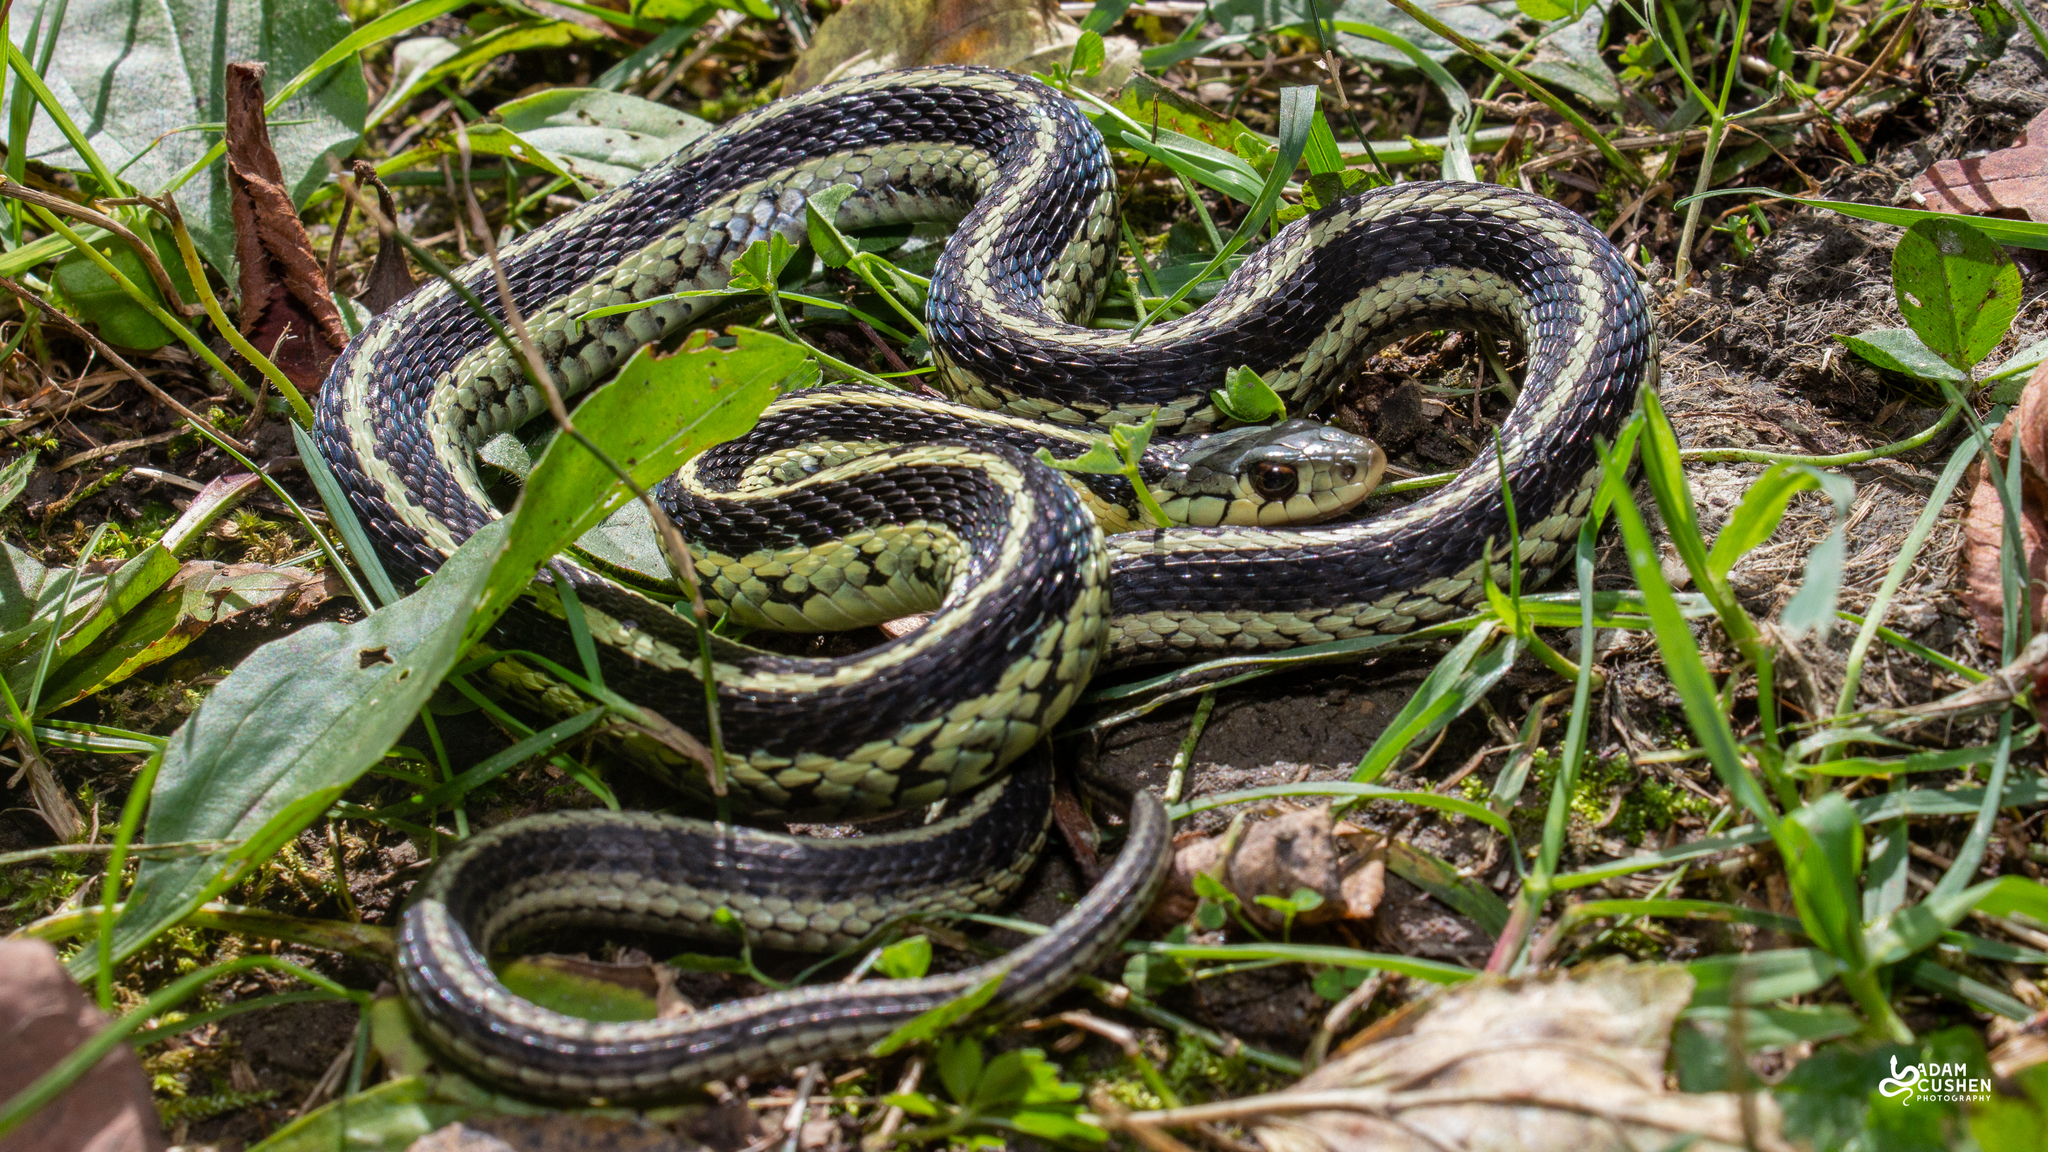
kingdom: Animalia
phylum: Chordata
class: Squamata
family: Colubridae
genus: Thamnophis
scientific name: Thamnophis sirtalis
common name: Common garter snake
